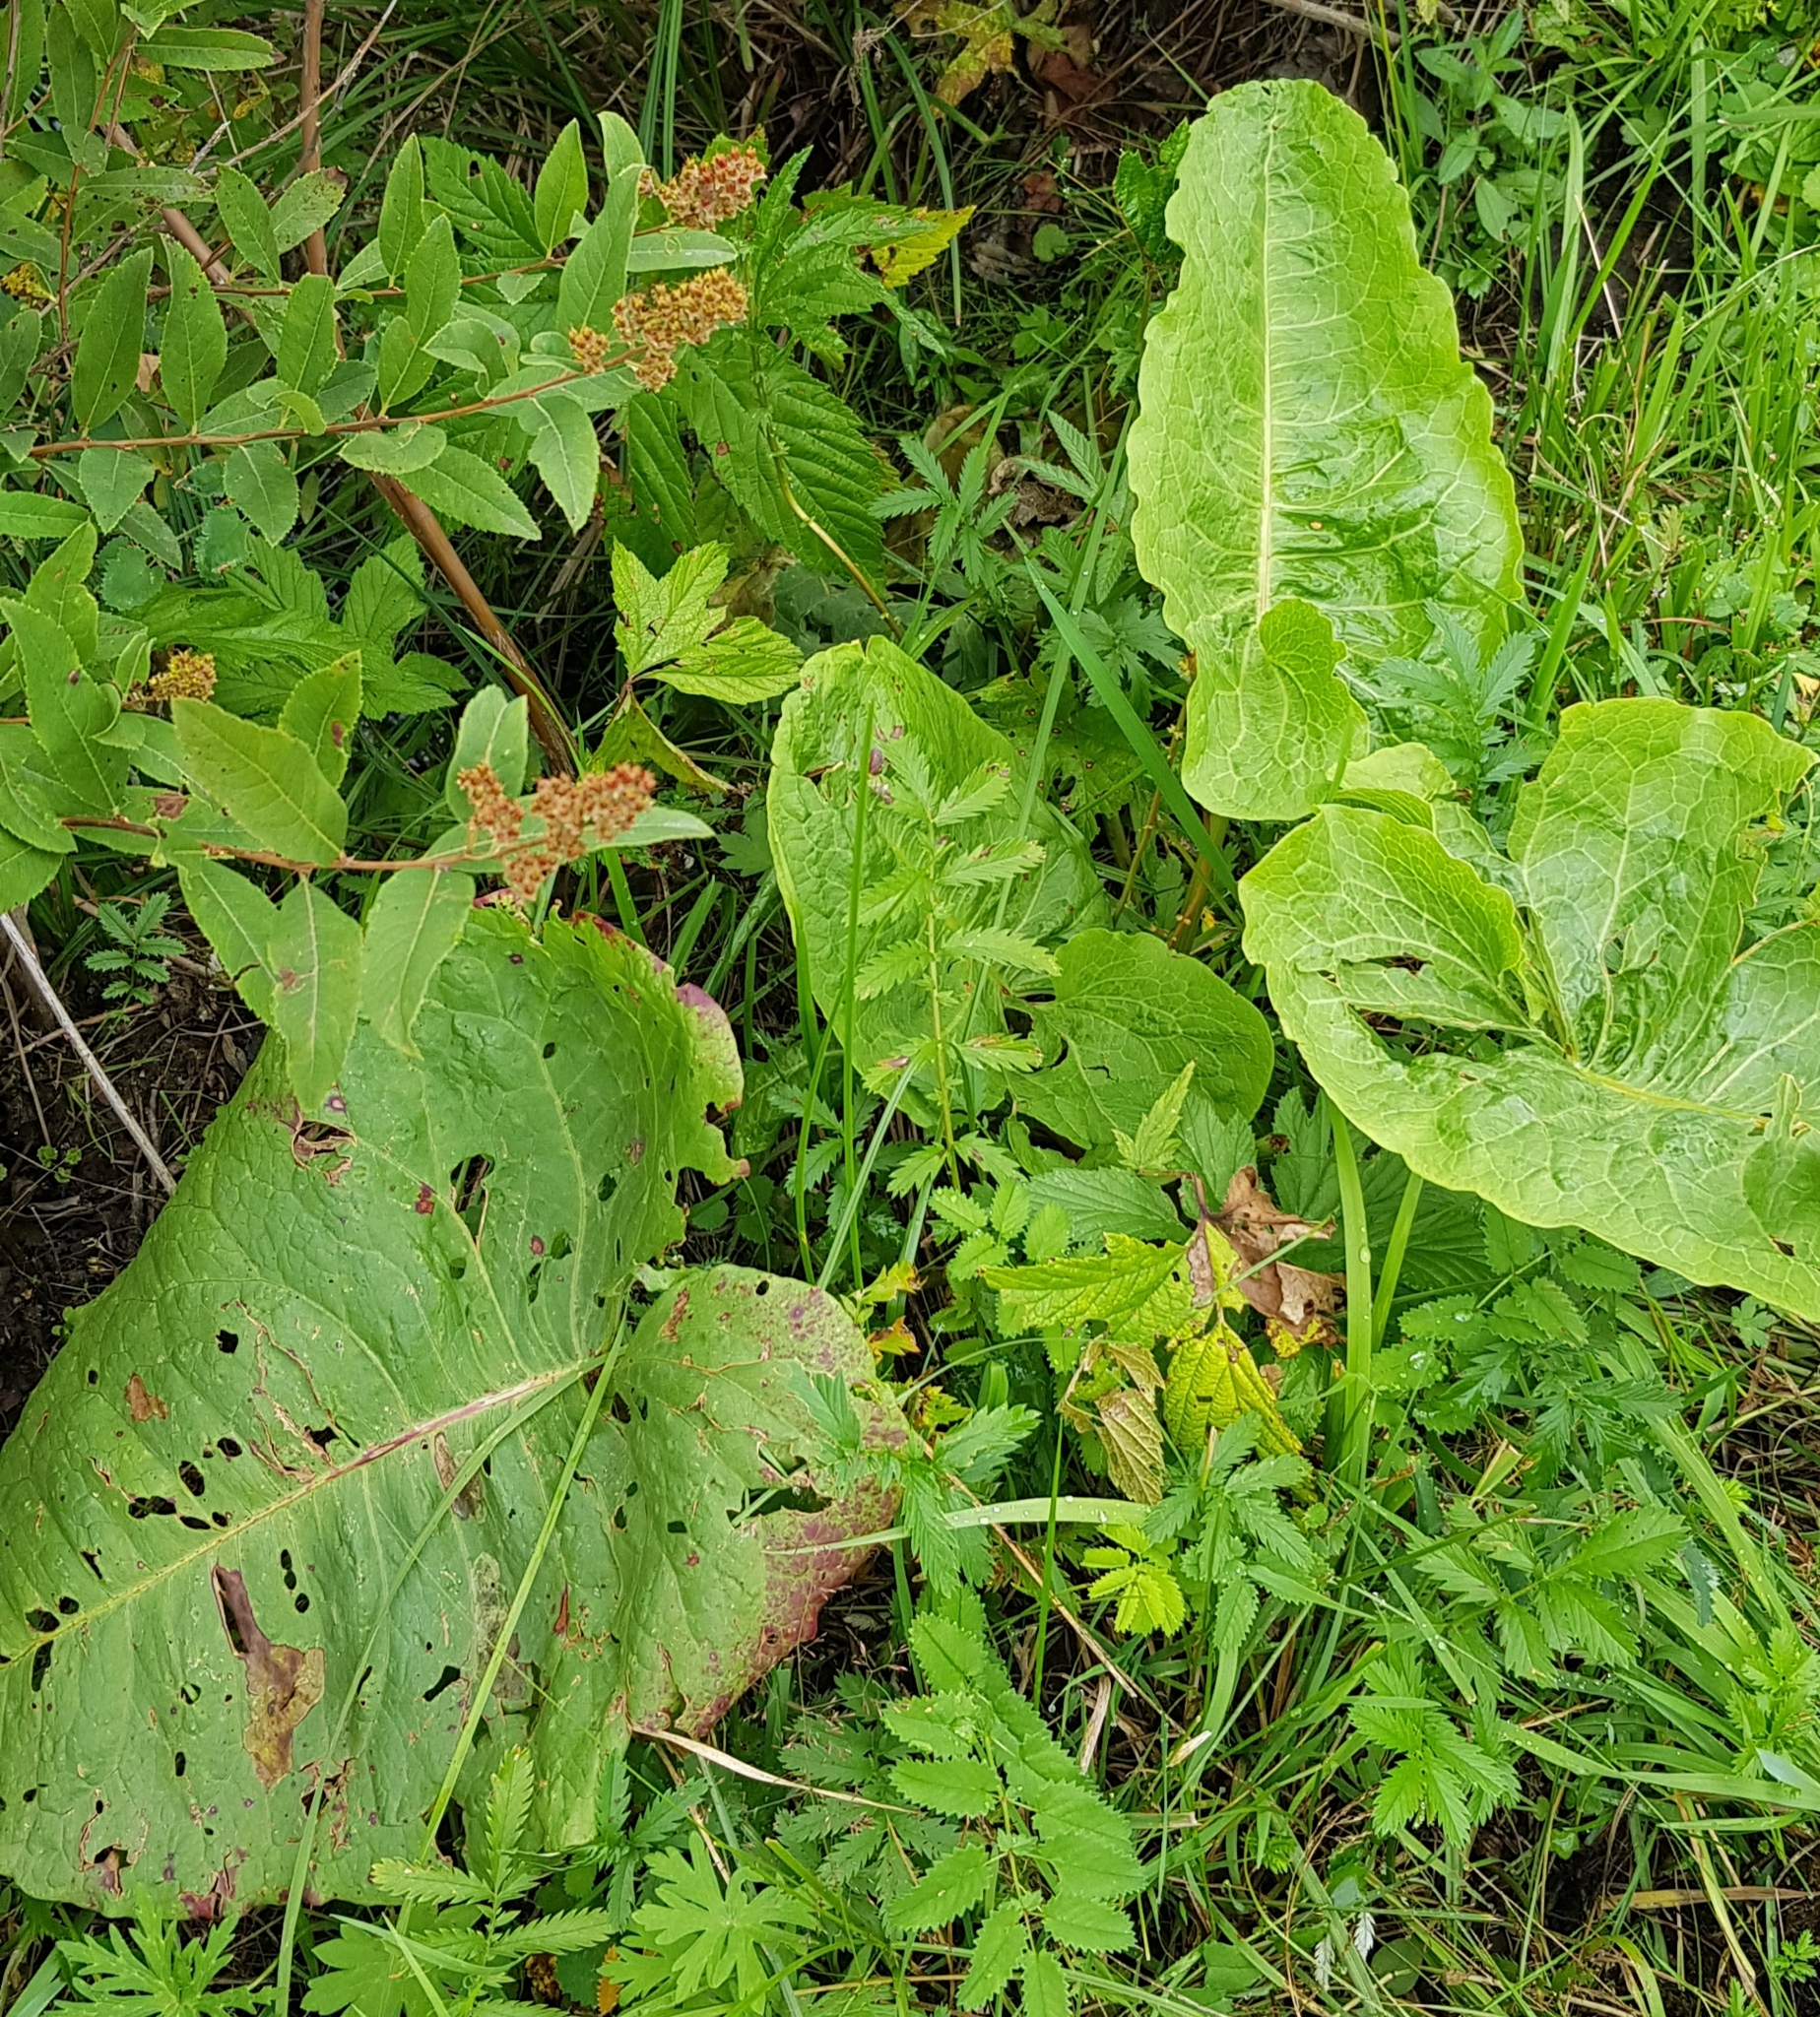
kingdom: Plantae
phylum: Tracheophyta
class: Magnoliopsida
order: Caryophyllales
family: Polygonaceae
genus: Rumex
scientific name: Rumex confertus
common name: Russian dock
